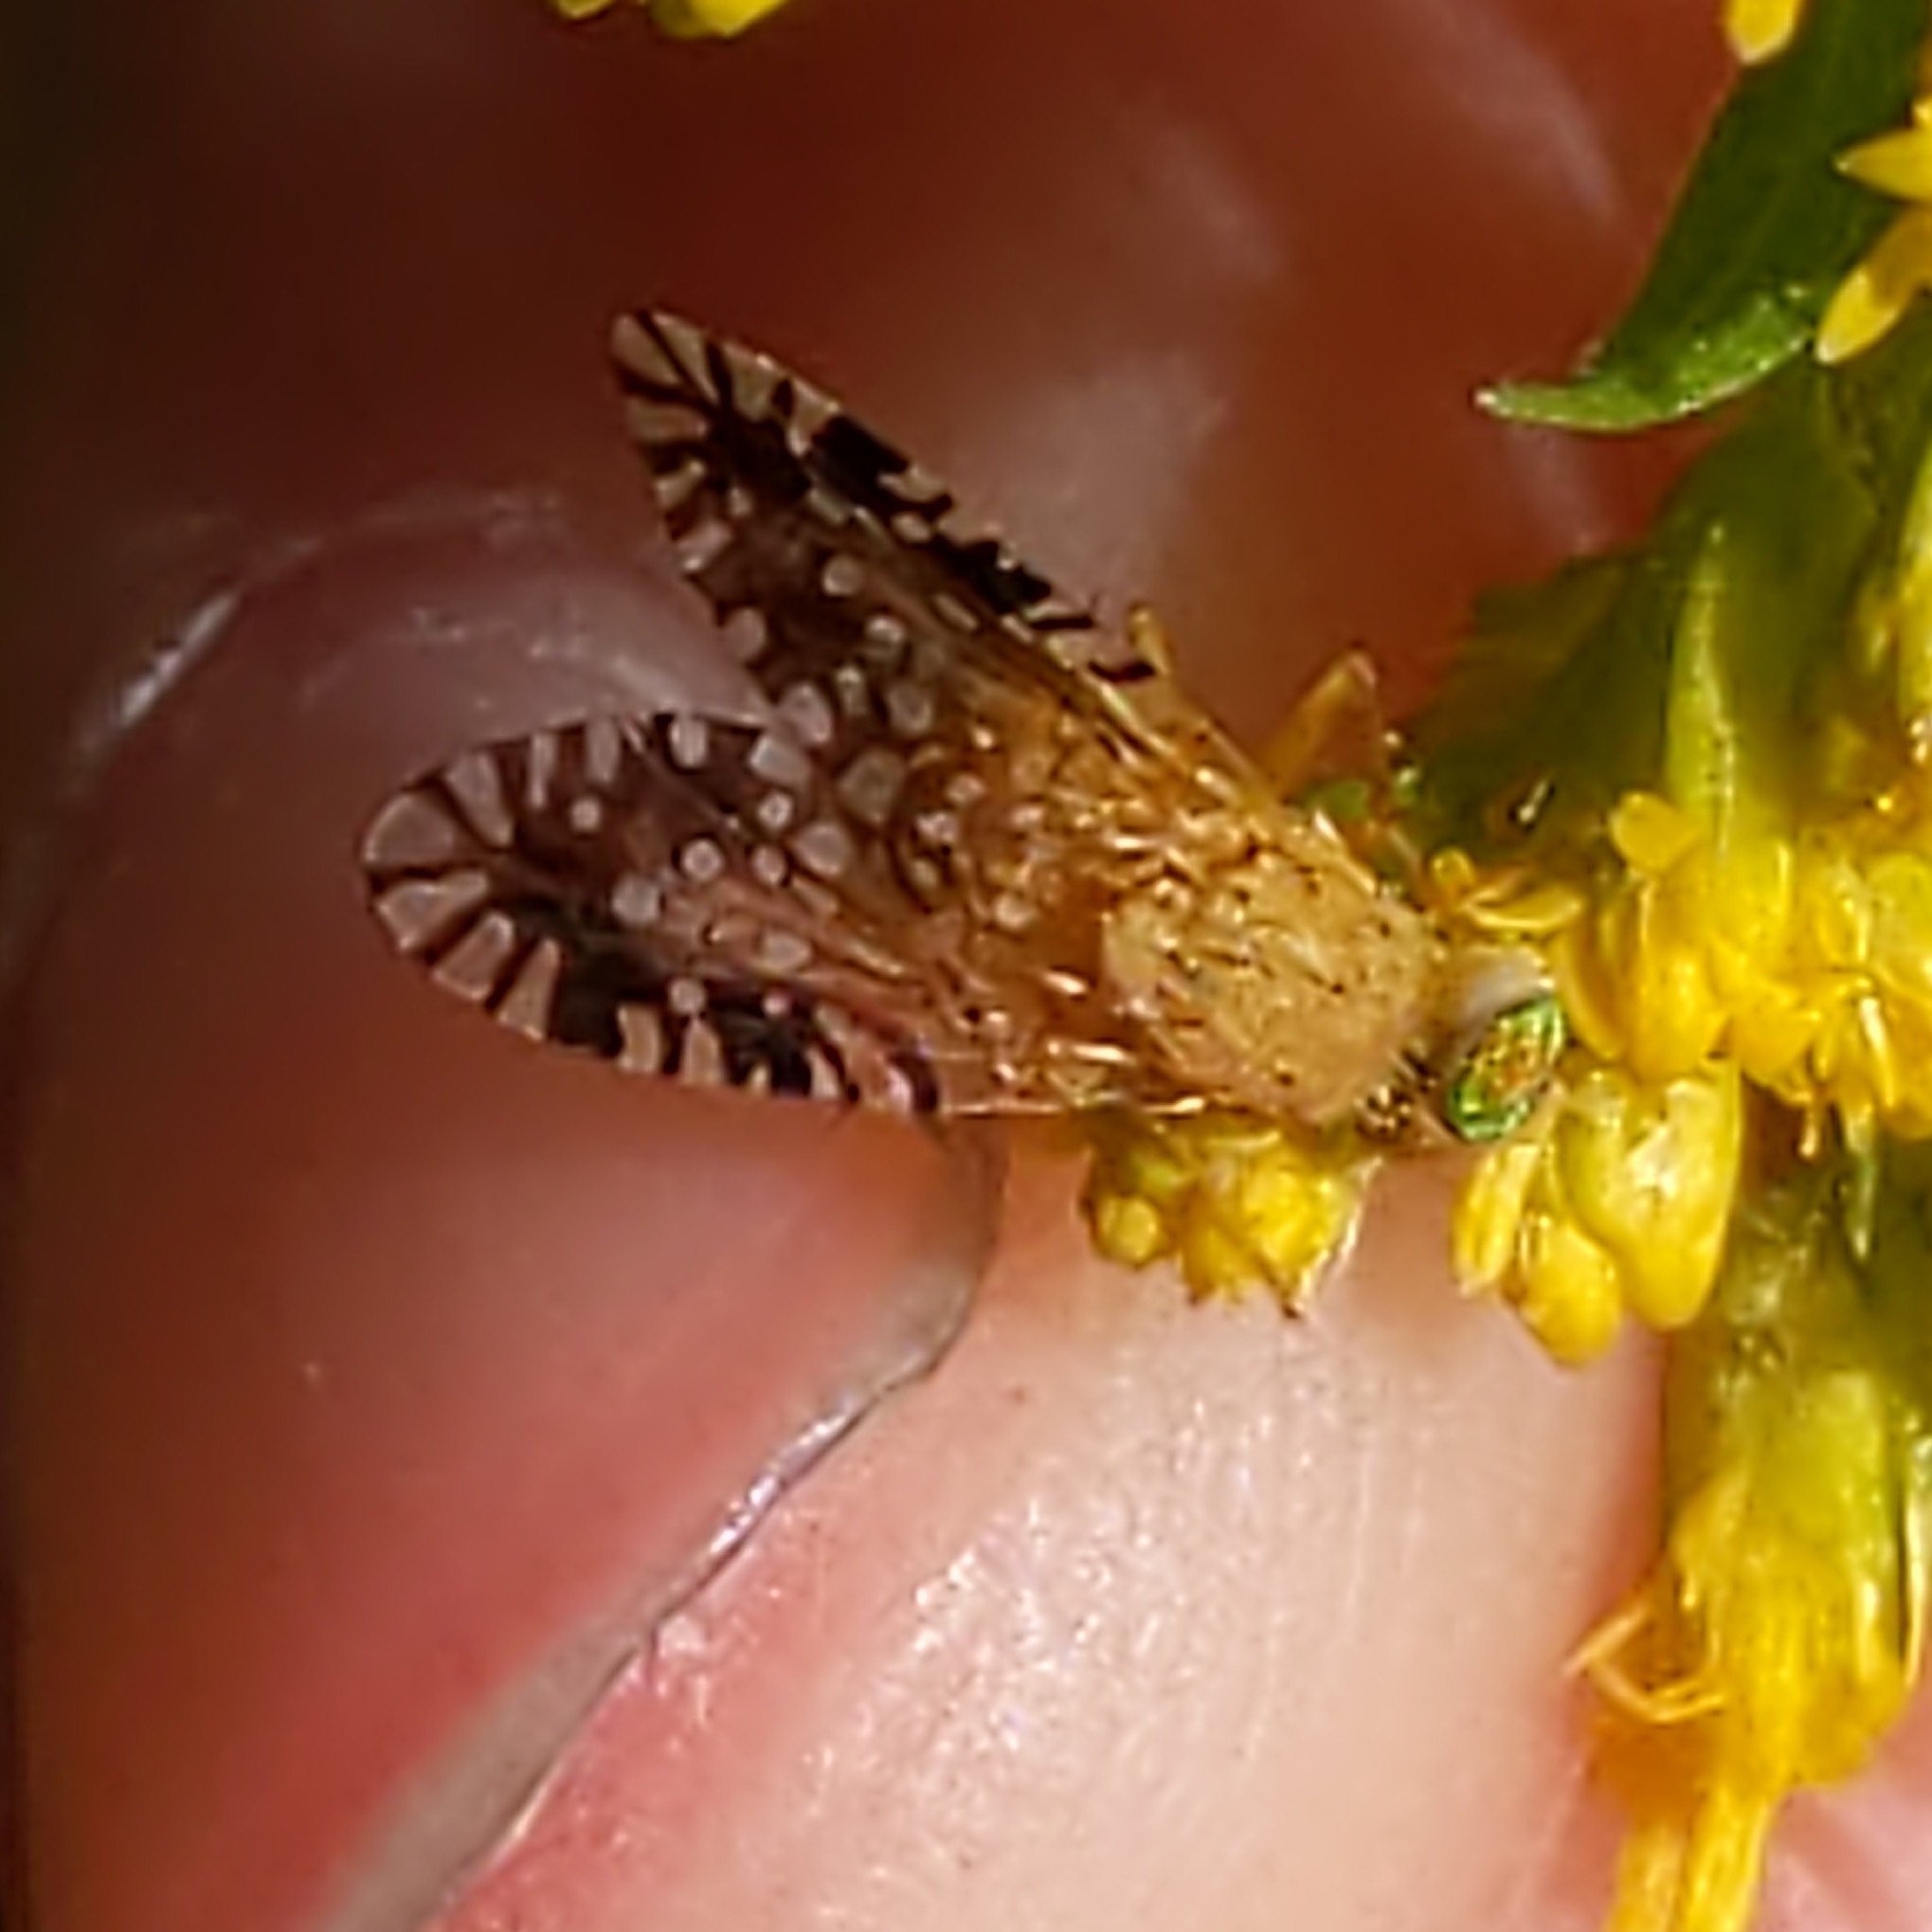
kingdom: Animalia
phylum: Arthropoda
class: Insecta
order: Diptera
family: Tephritidae
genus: Euaresta
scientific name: Euaresta festiva
